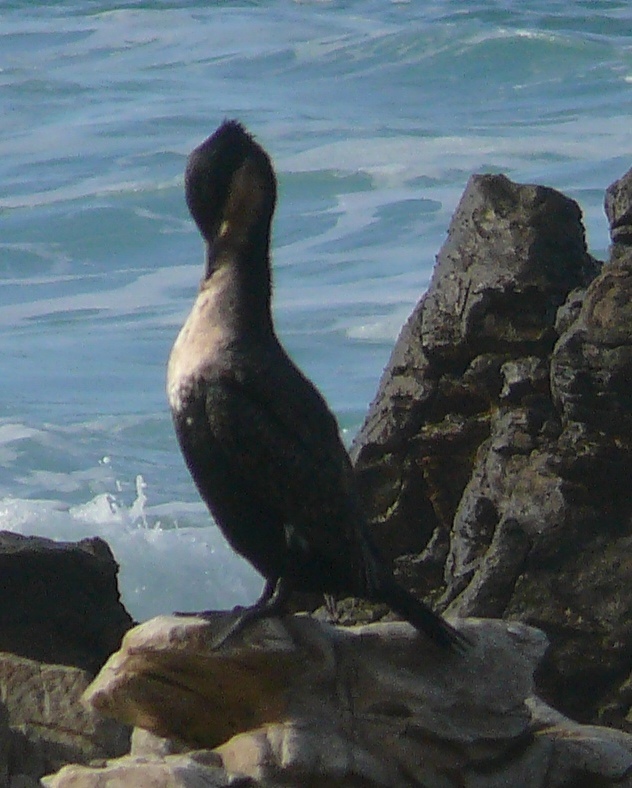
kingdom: Animalia
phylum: Chordata
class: Aves
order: Suliformes
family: Phalacrocoracidae
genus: Phalacrocorax
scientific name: Phalacrocorax carbo
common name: Great cormorant
